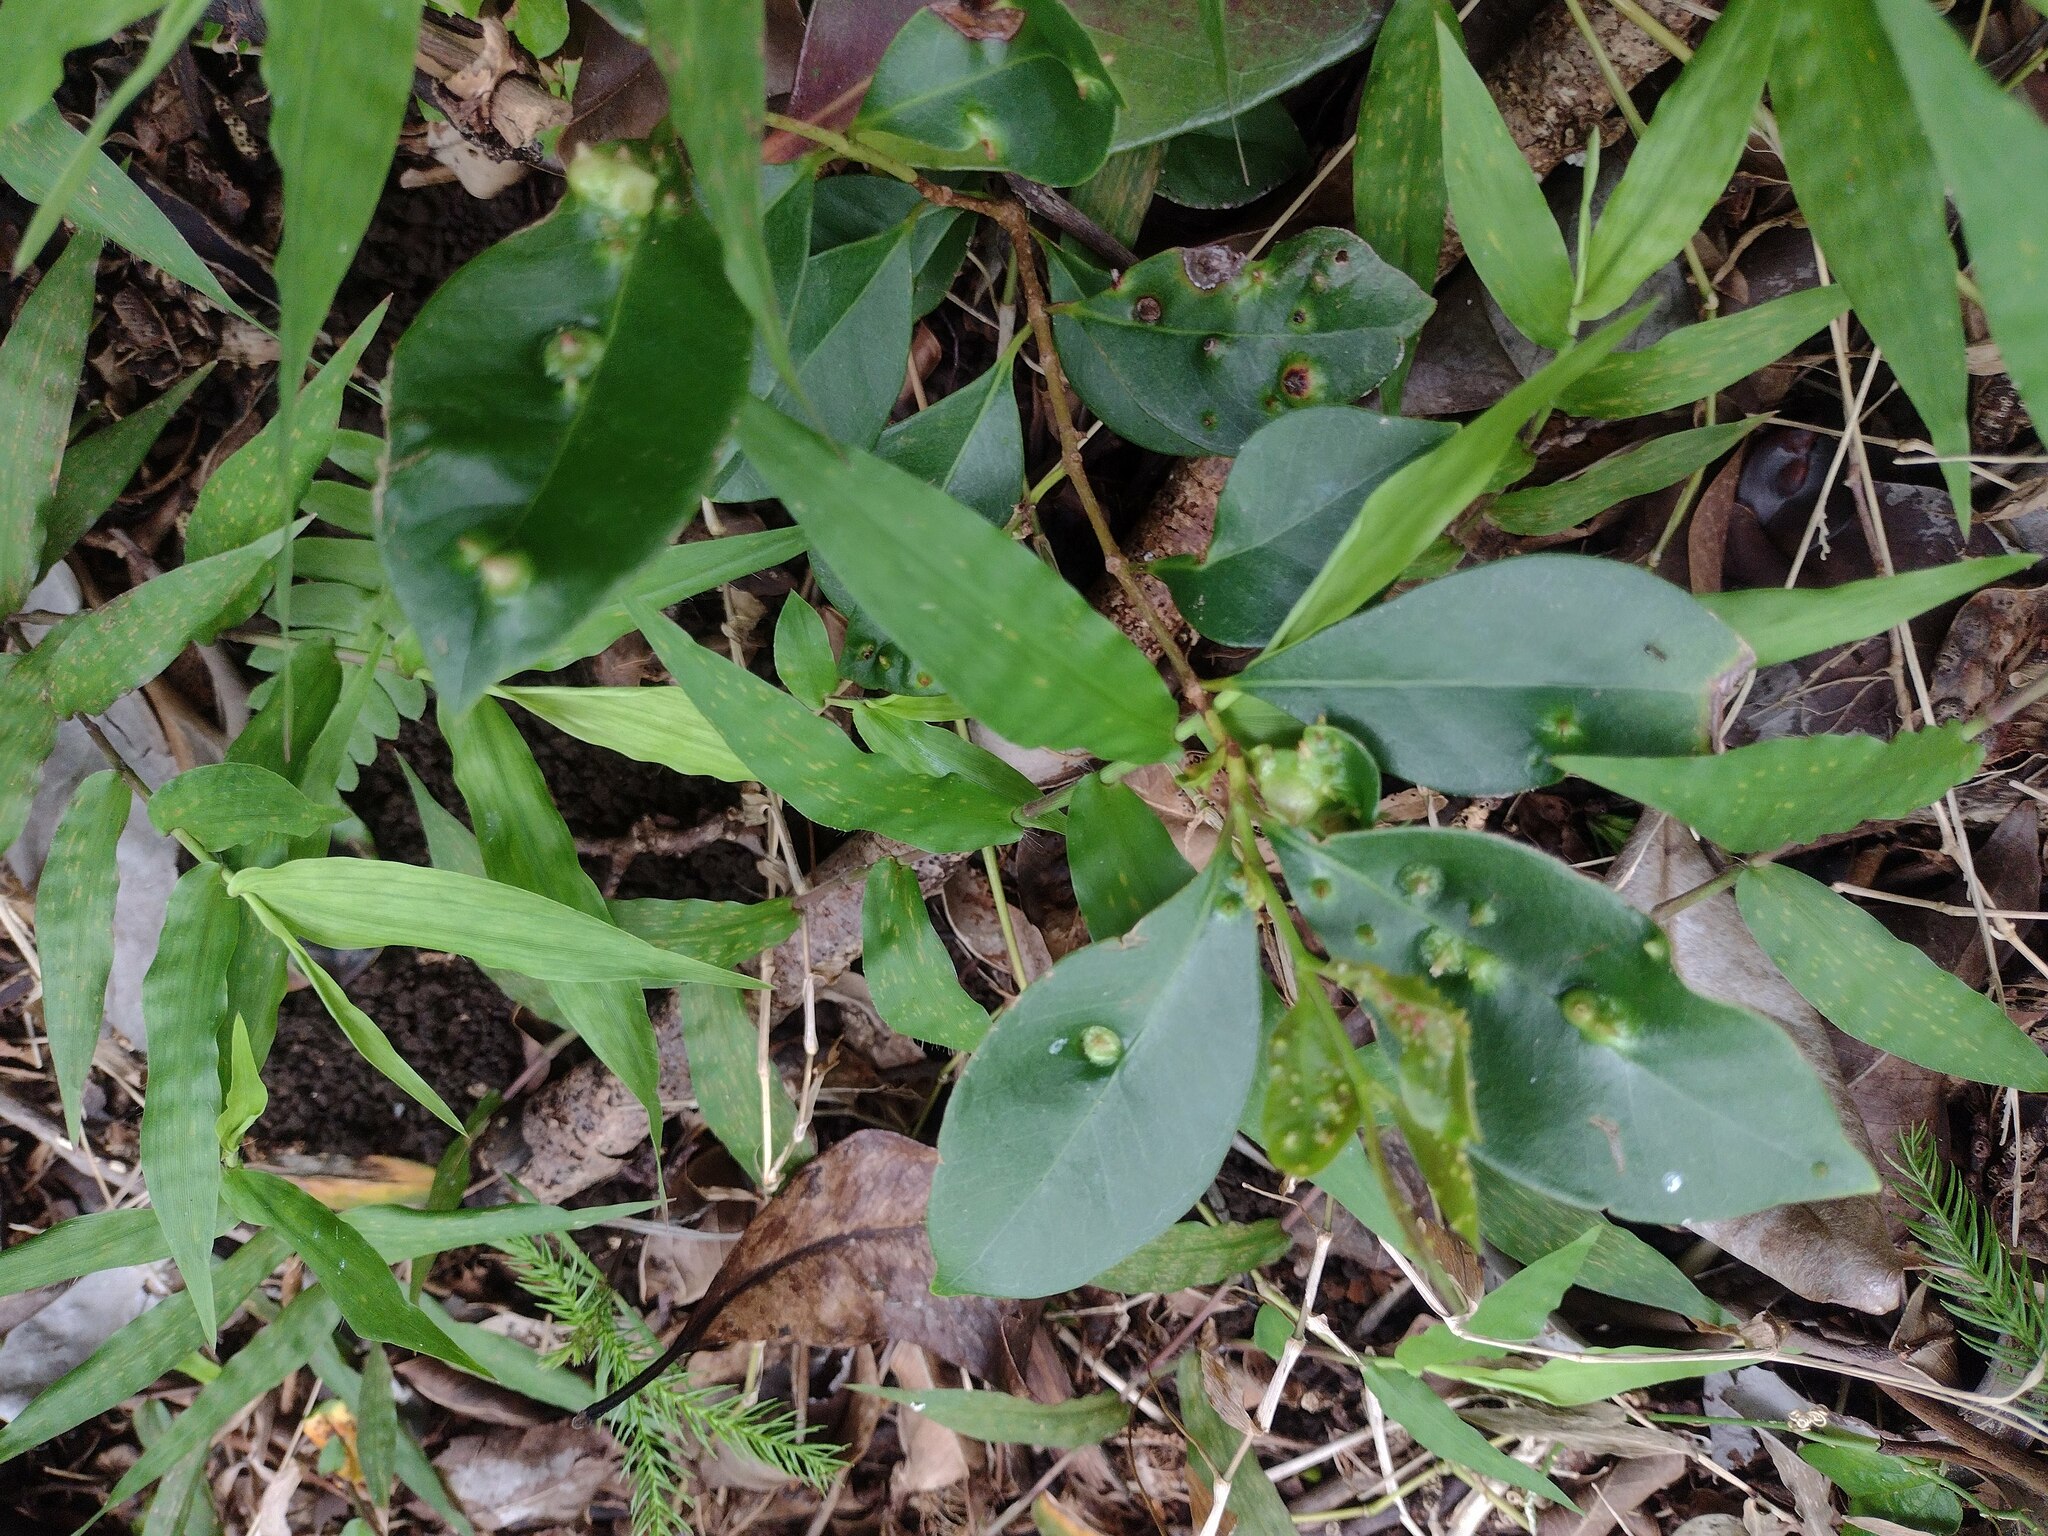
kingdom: Animalia
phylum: Arthropoda
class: Insecta
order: Hemiptera
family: Eriococcidae
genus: Tectococcus
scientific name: Tectococcus ovatus
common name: Eriococcid scale
